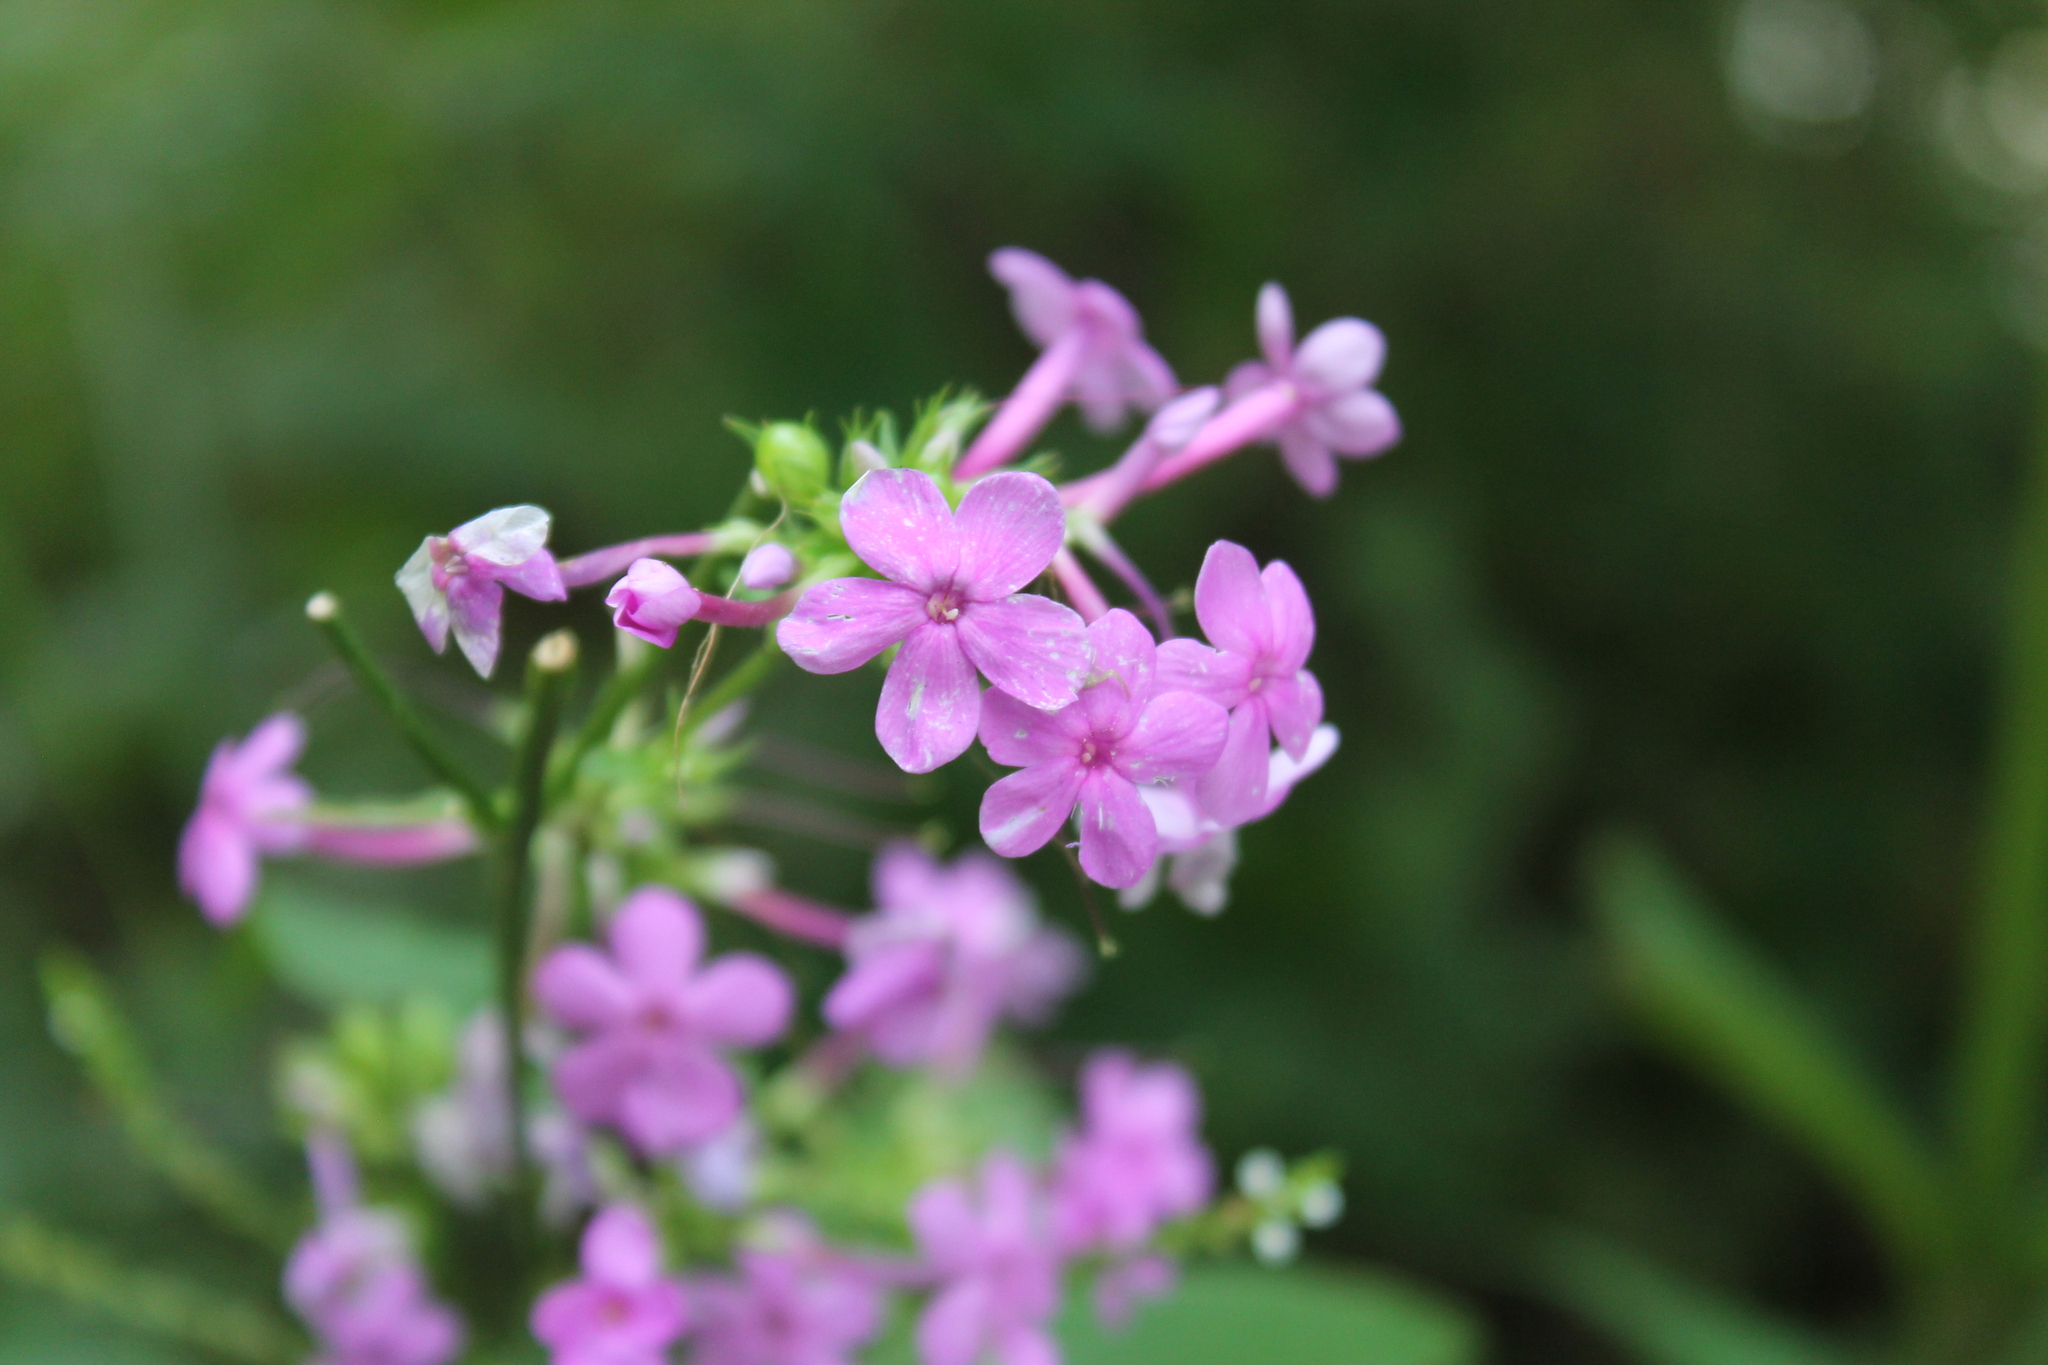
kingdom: Plantae
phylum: Tracheophyta
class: Magnoliopsida
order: Ericales
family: Polemoniaceae
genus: Phlox
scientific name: Phlox paniculata
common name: Fall phlox
